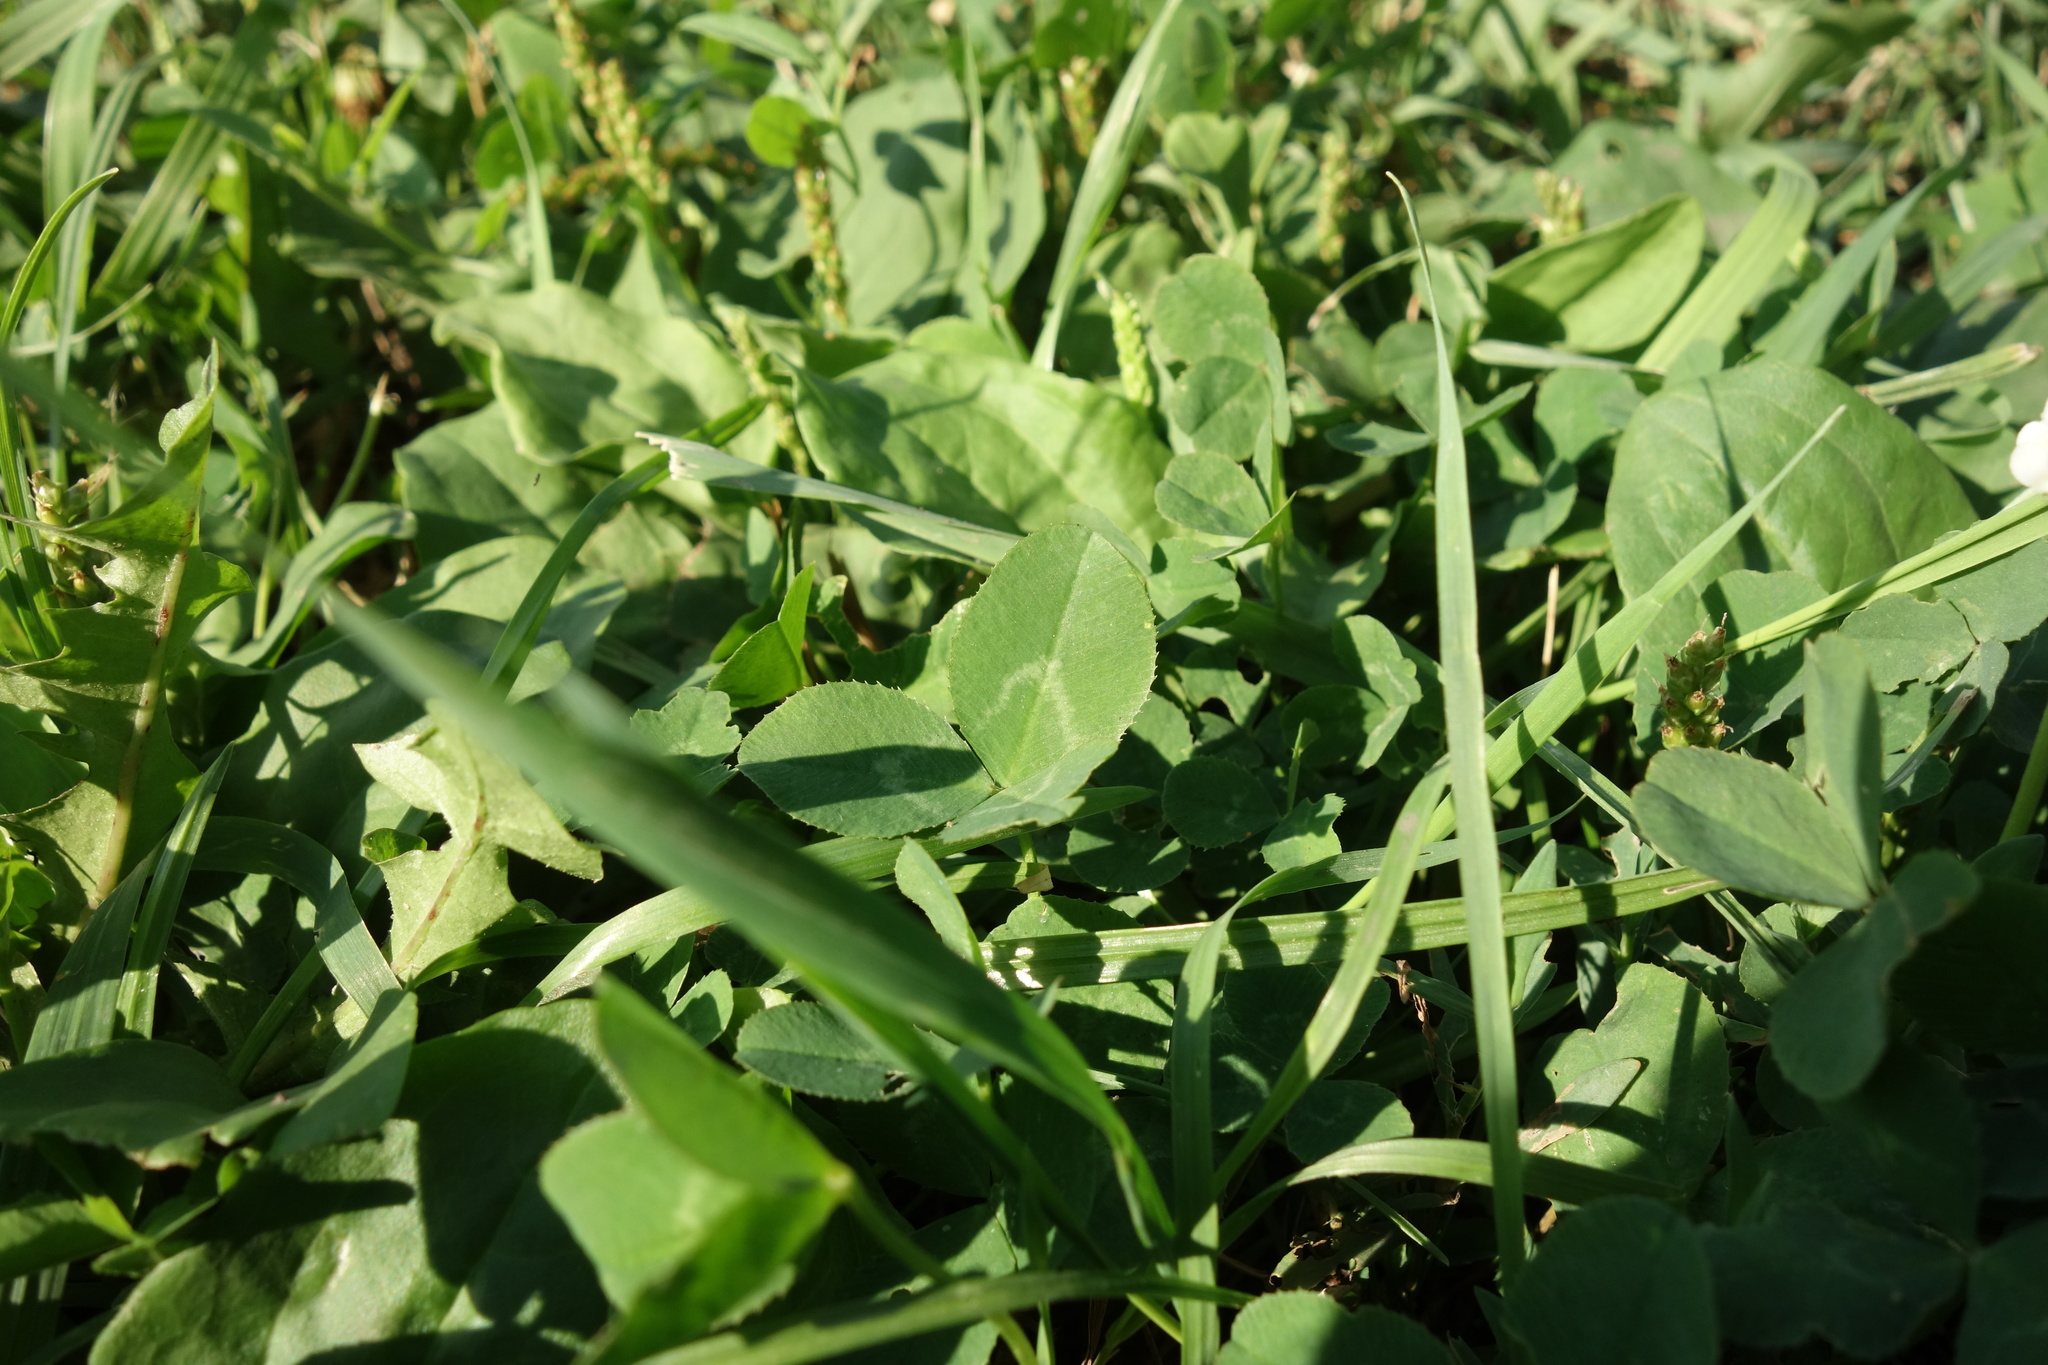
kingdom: Plantae
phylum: Tracheophyta
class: Magnoliopsida
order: Fabales
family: Fabaceae
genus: Trifolium
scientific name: Trifolium repens
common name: White clover
